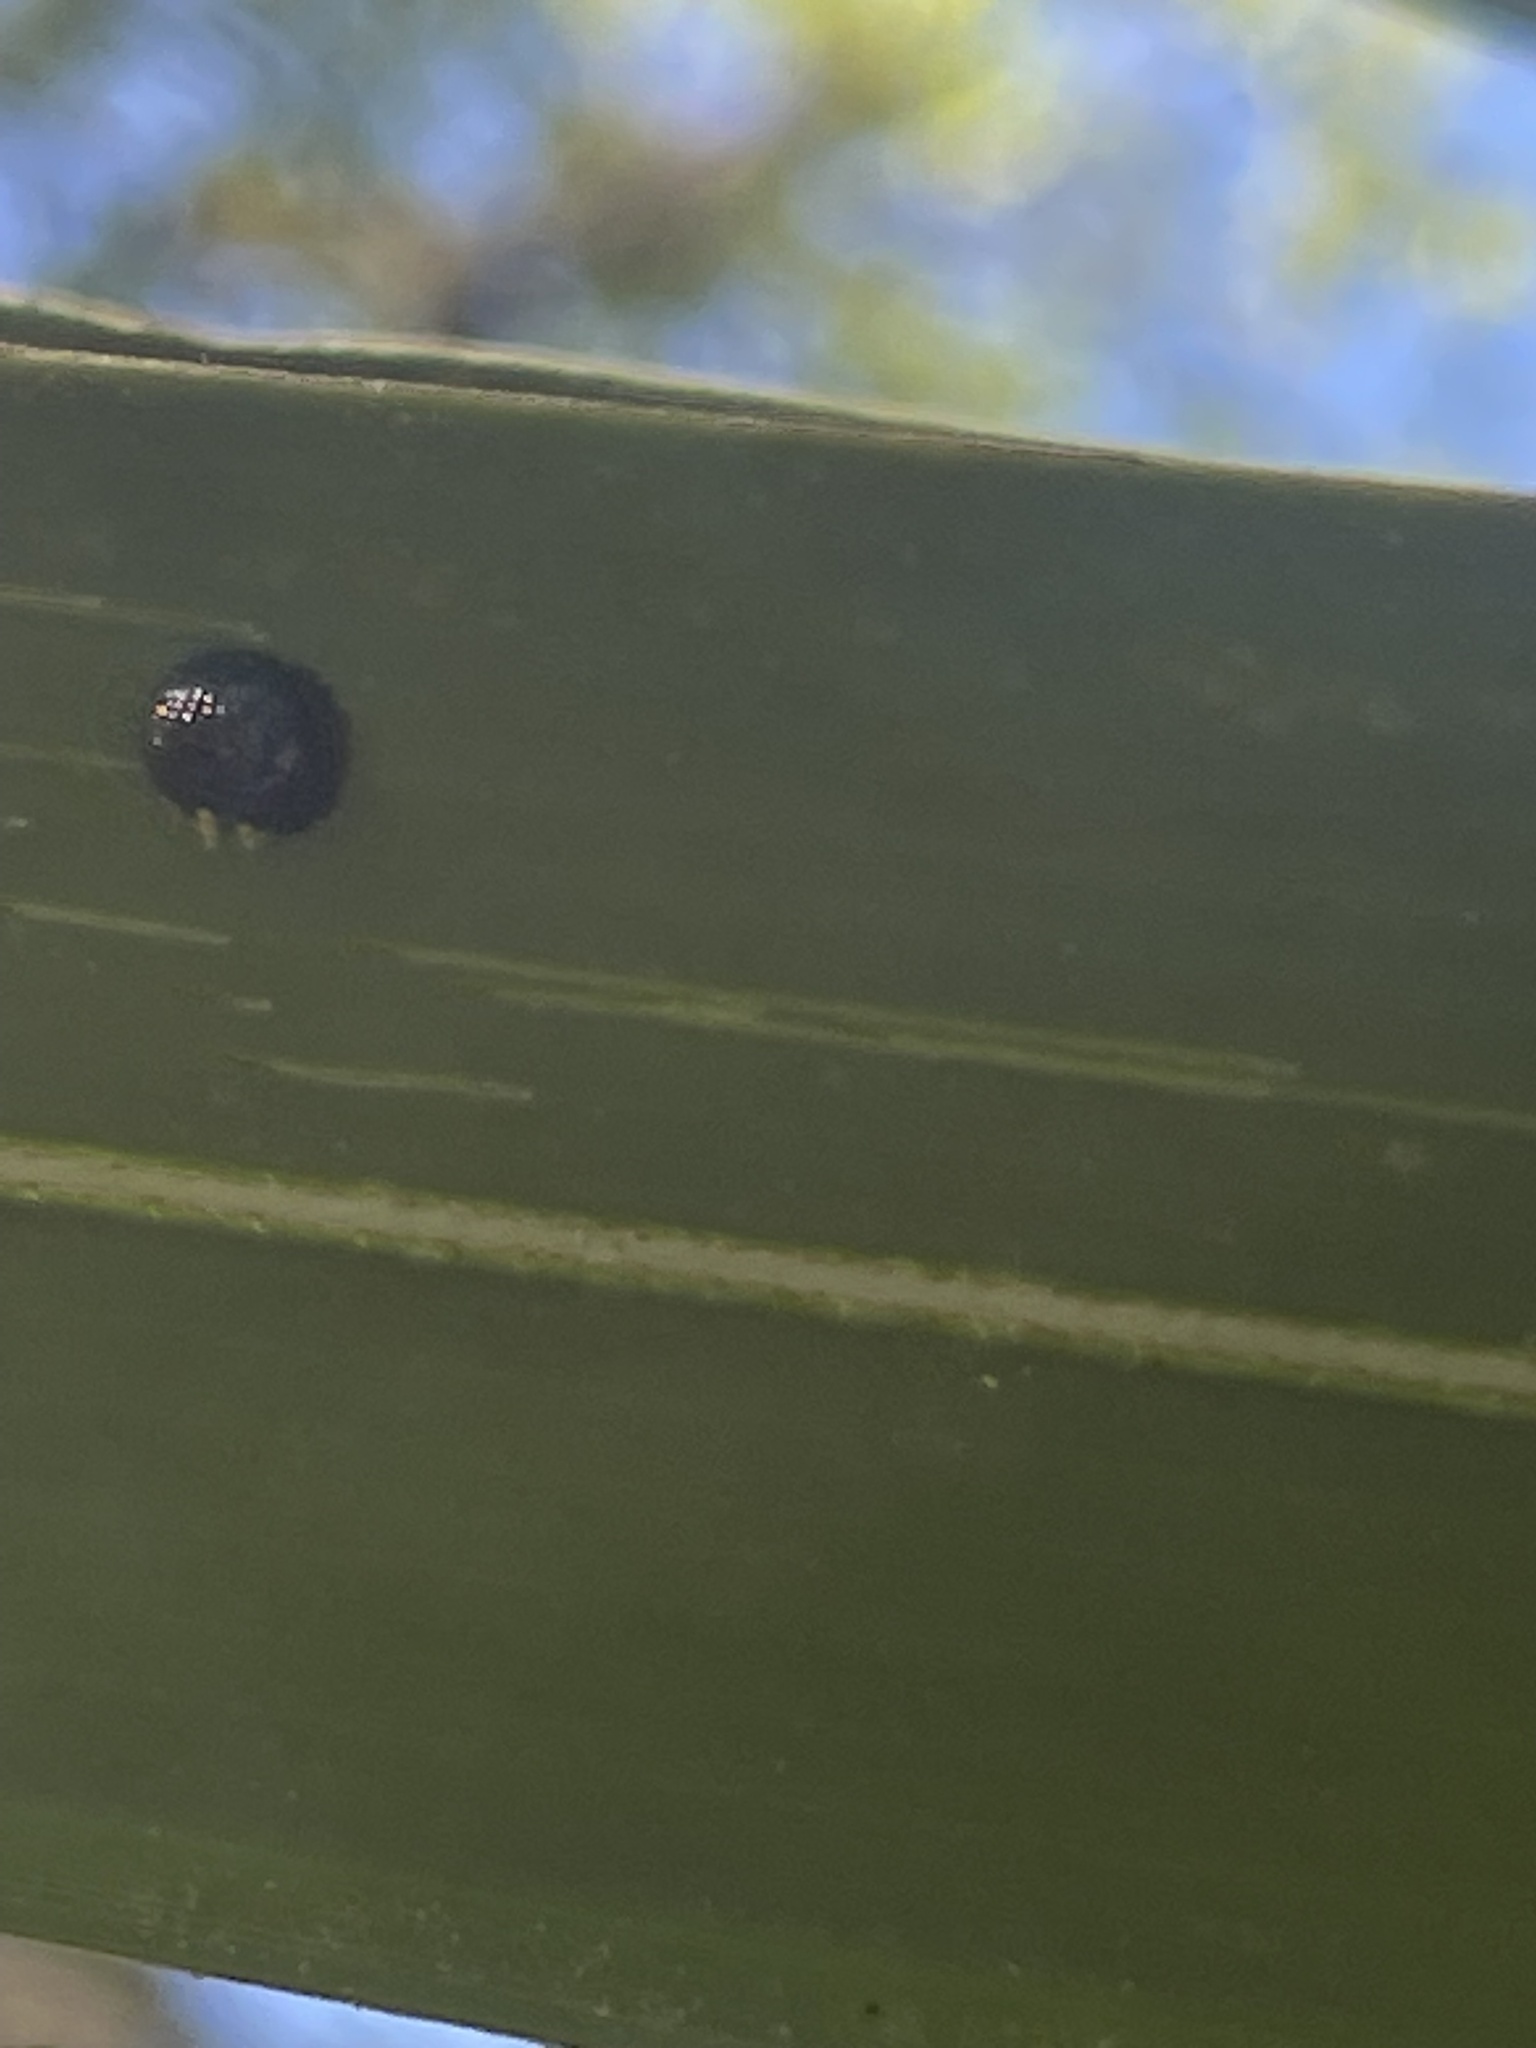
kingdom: Animalia
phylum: Arthropoda
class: Insecta
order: Coleoptera
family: Chrysomelidae
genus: Hemisphaerota
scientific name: Hemisphaerota cyanea
